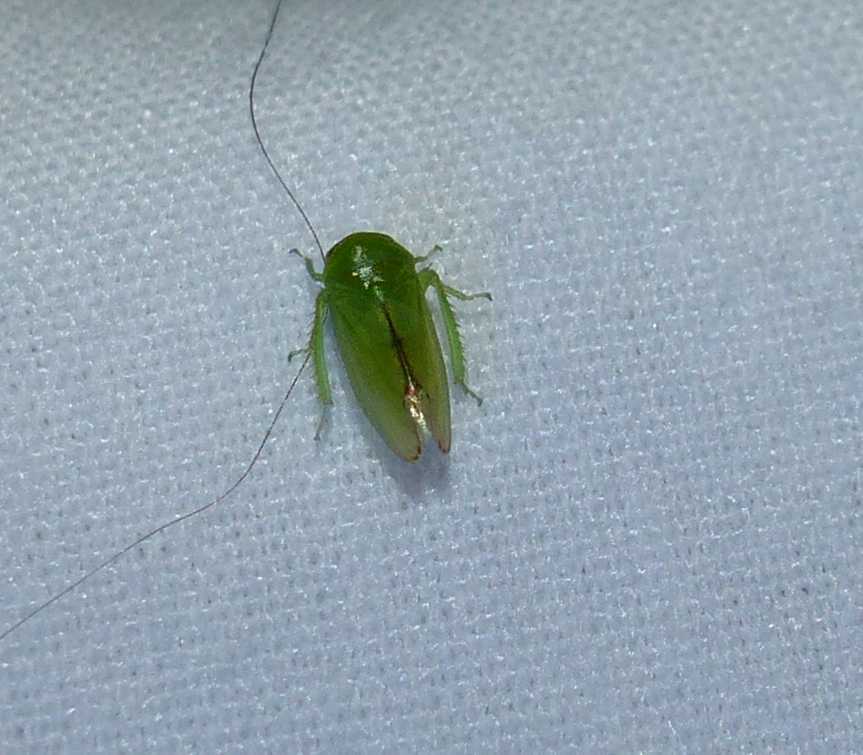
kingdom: Animalia
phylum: Arthropoda
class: Insecta
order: Hemiptera
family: Cicadellidae
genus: Stragania
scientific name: Stragania alabamensis
